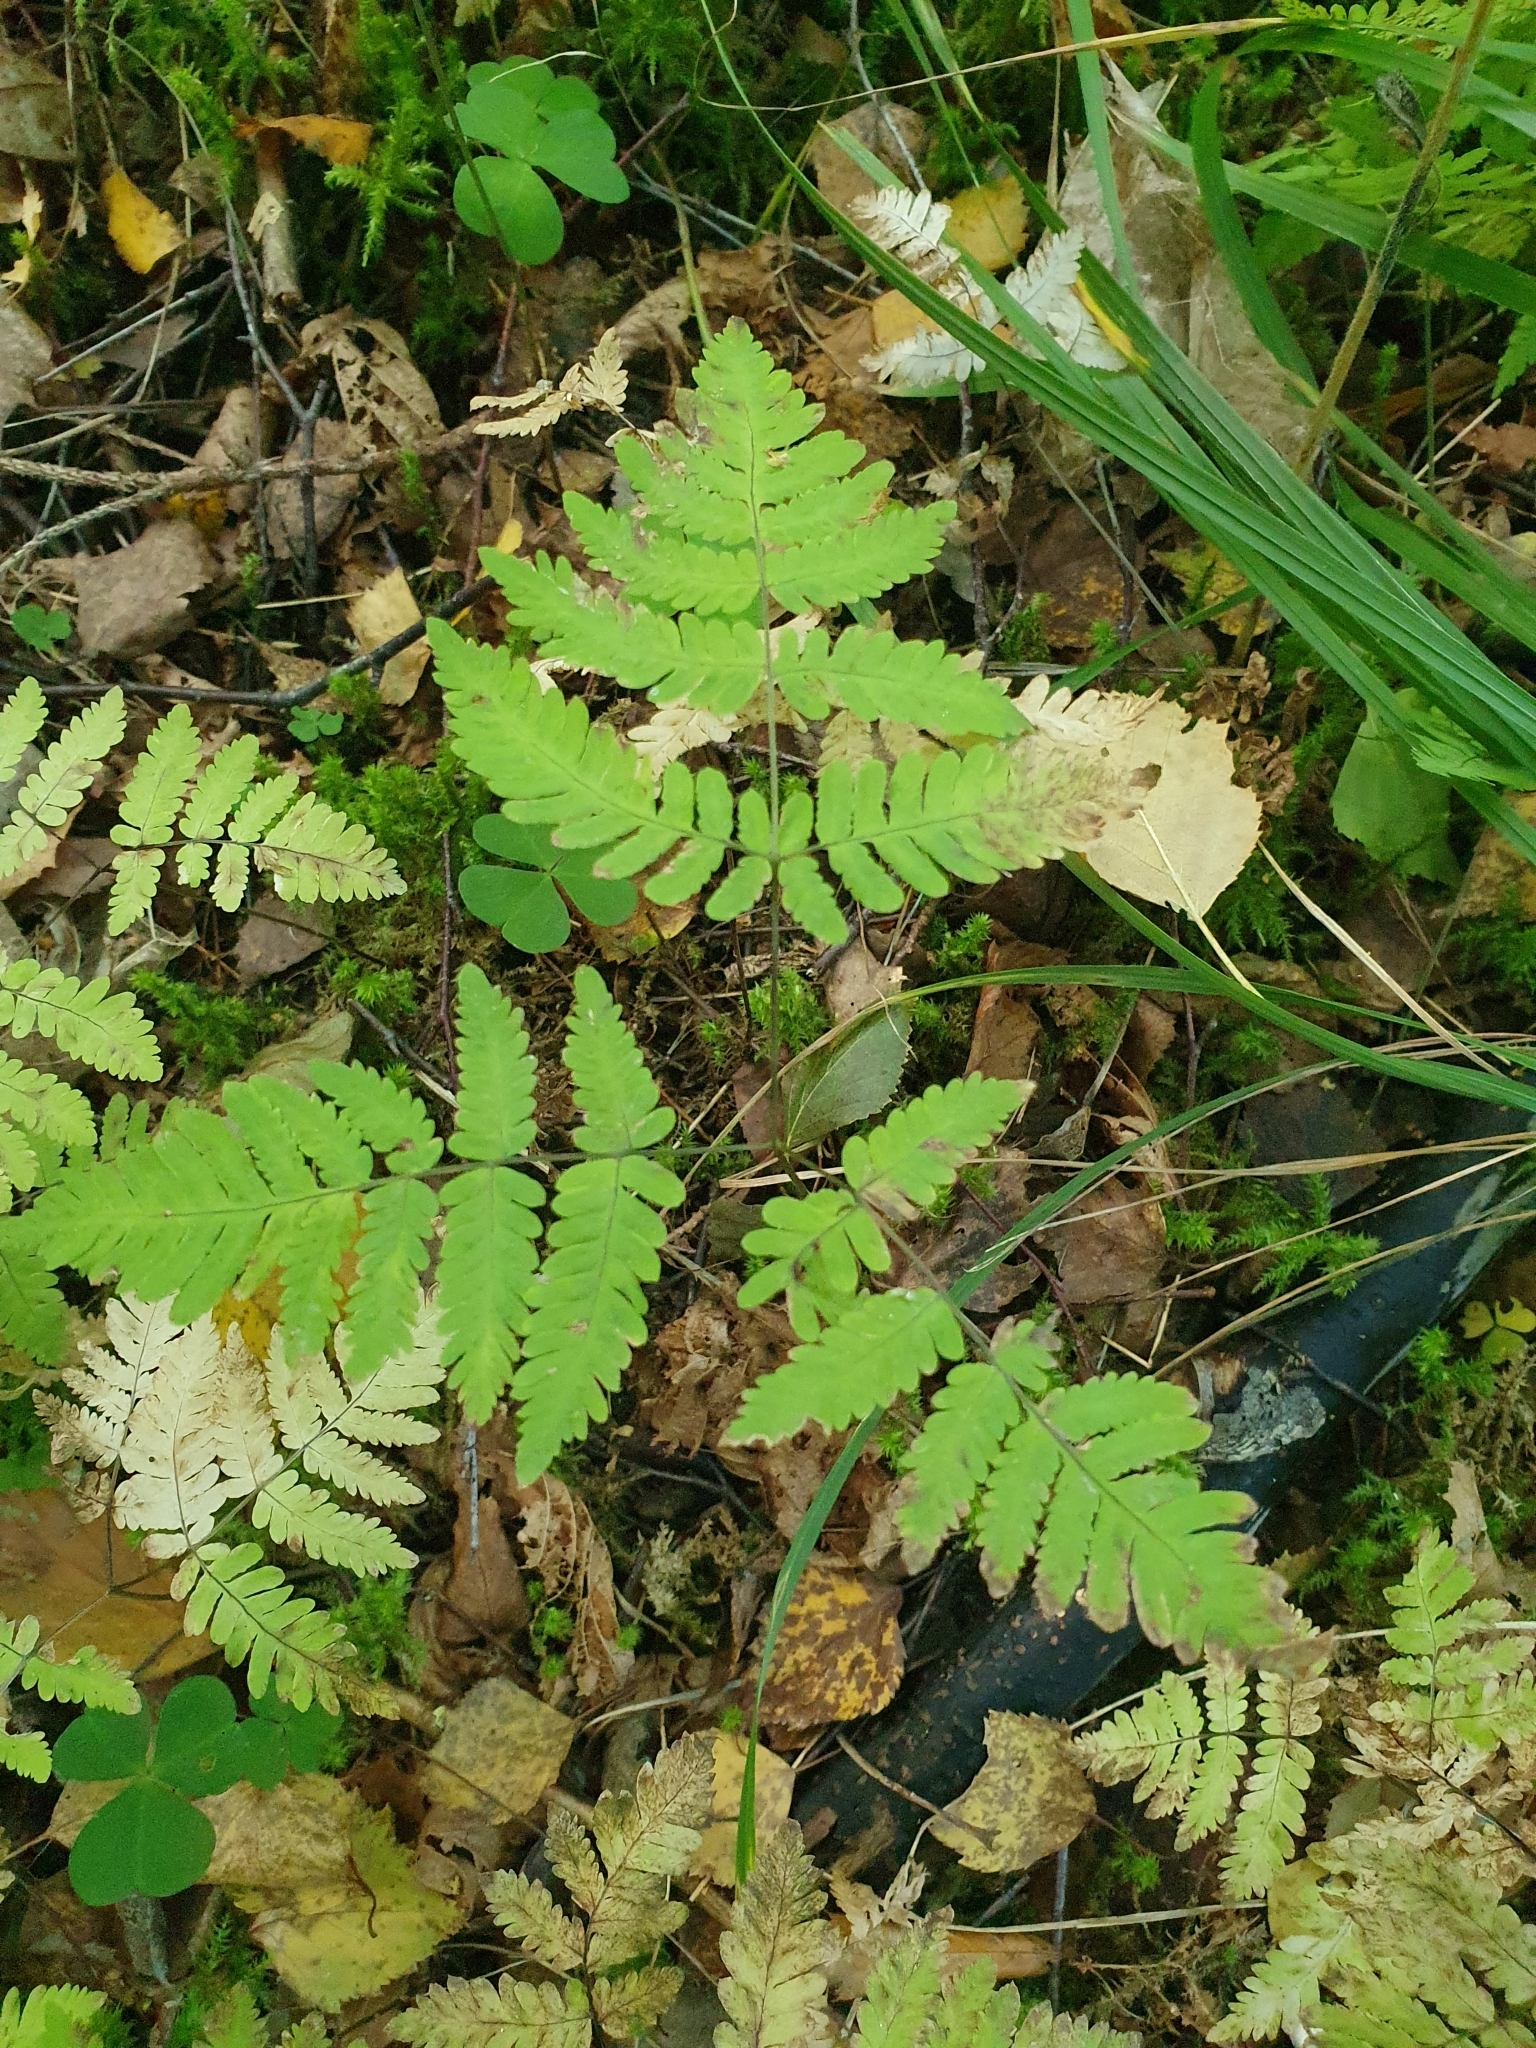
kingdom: Plantae
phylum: Tracheophyta
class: Polypodiopsida
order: Polypodiales
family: Cystopteridaceae
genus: Gymnocarpium
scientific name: Gymnocarpium dryopteris
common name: Oak fern
